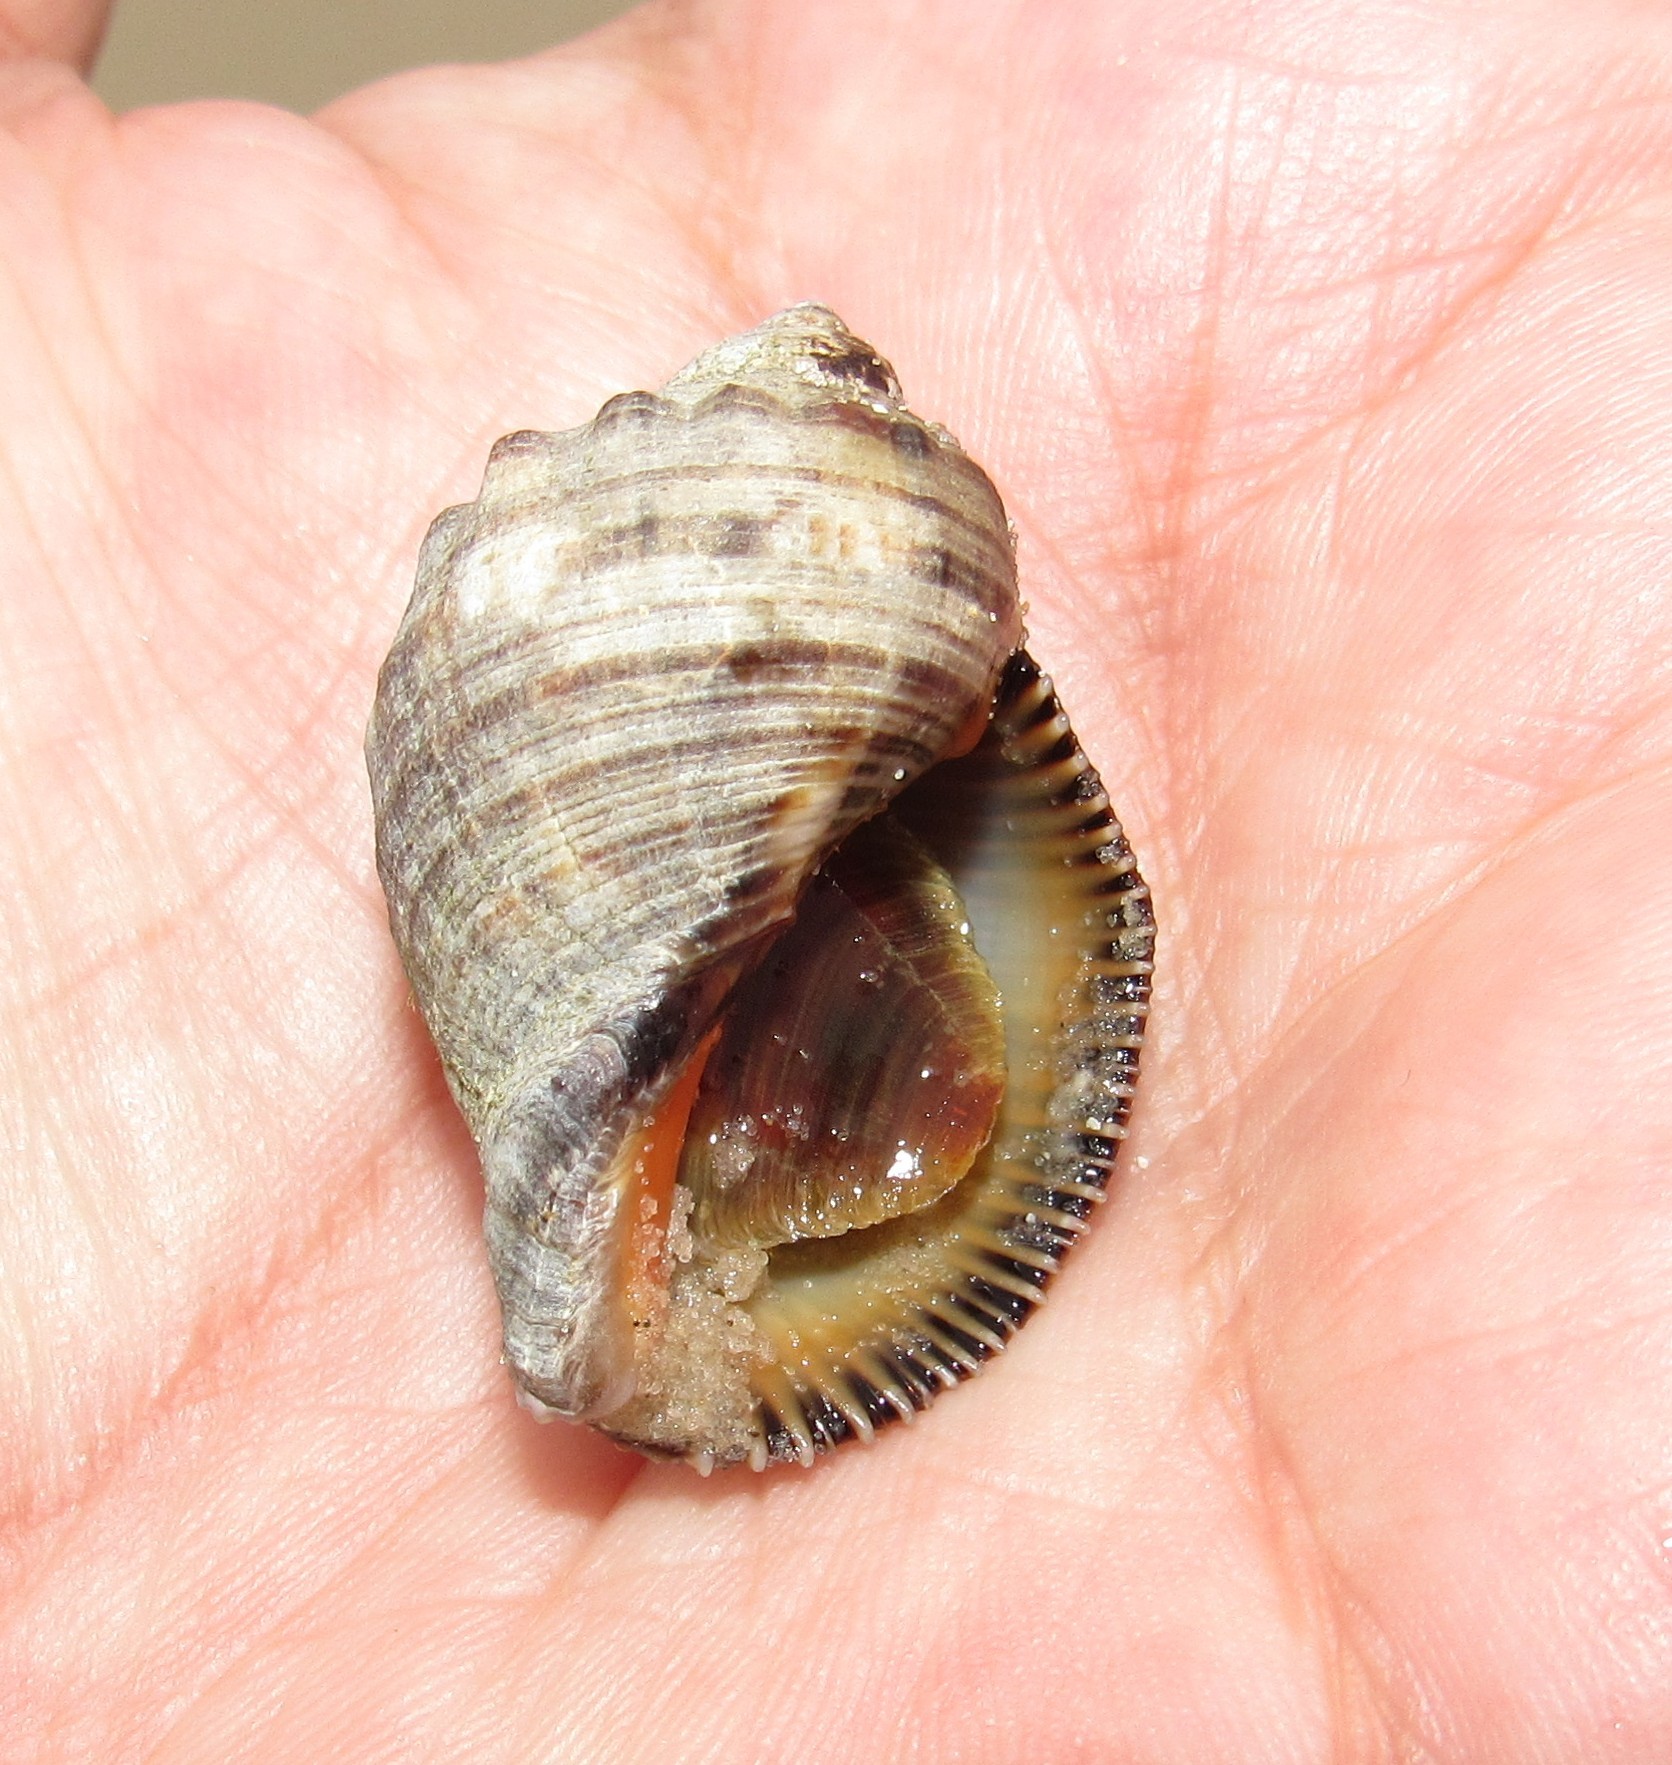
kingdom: Animalia
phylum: Mollusca
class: Gastropoda
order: Neogastropoda
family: Muricidae
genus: Stramonita
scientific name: Stramonita brasiliensis
